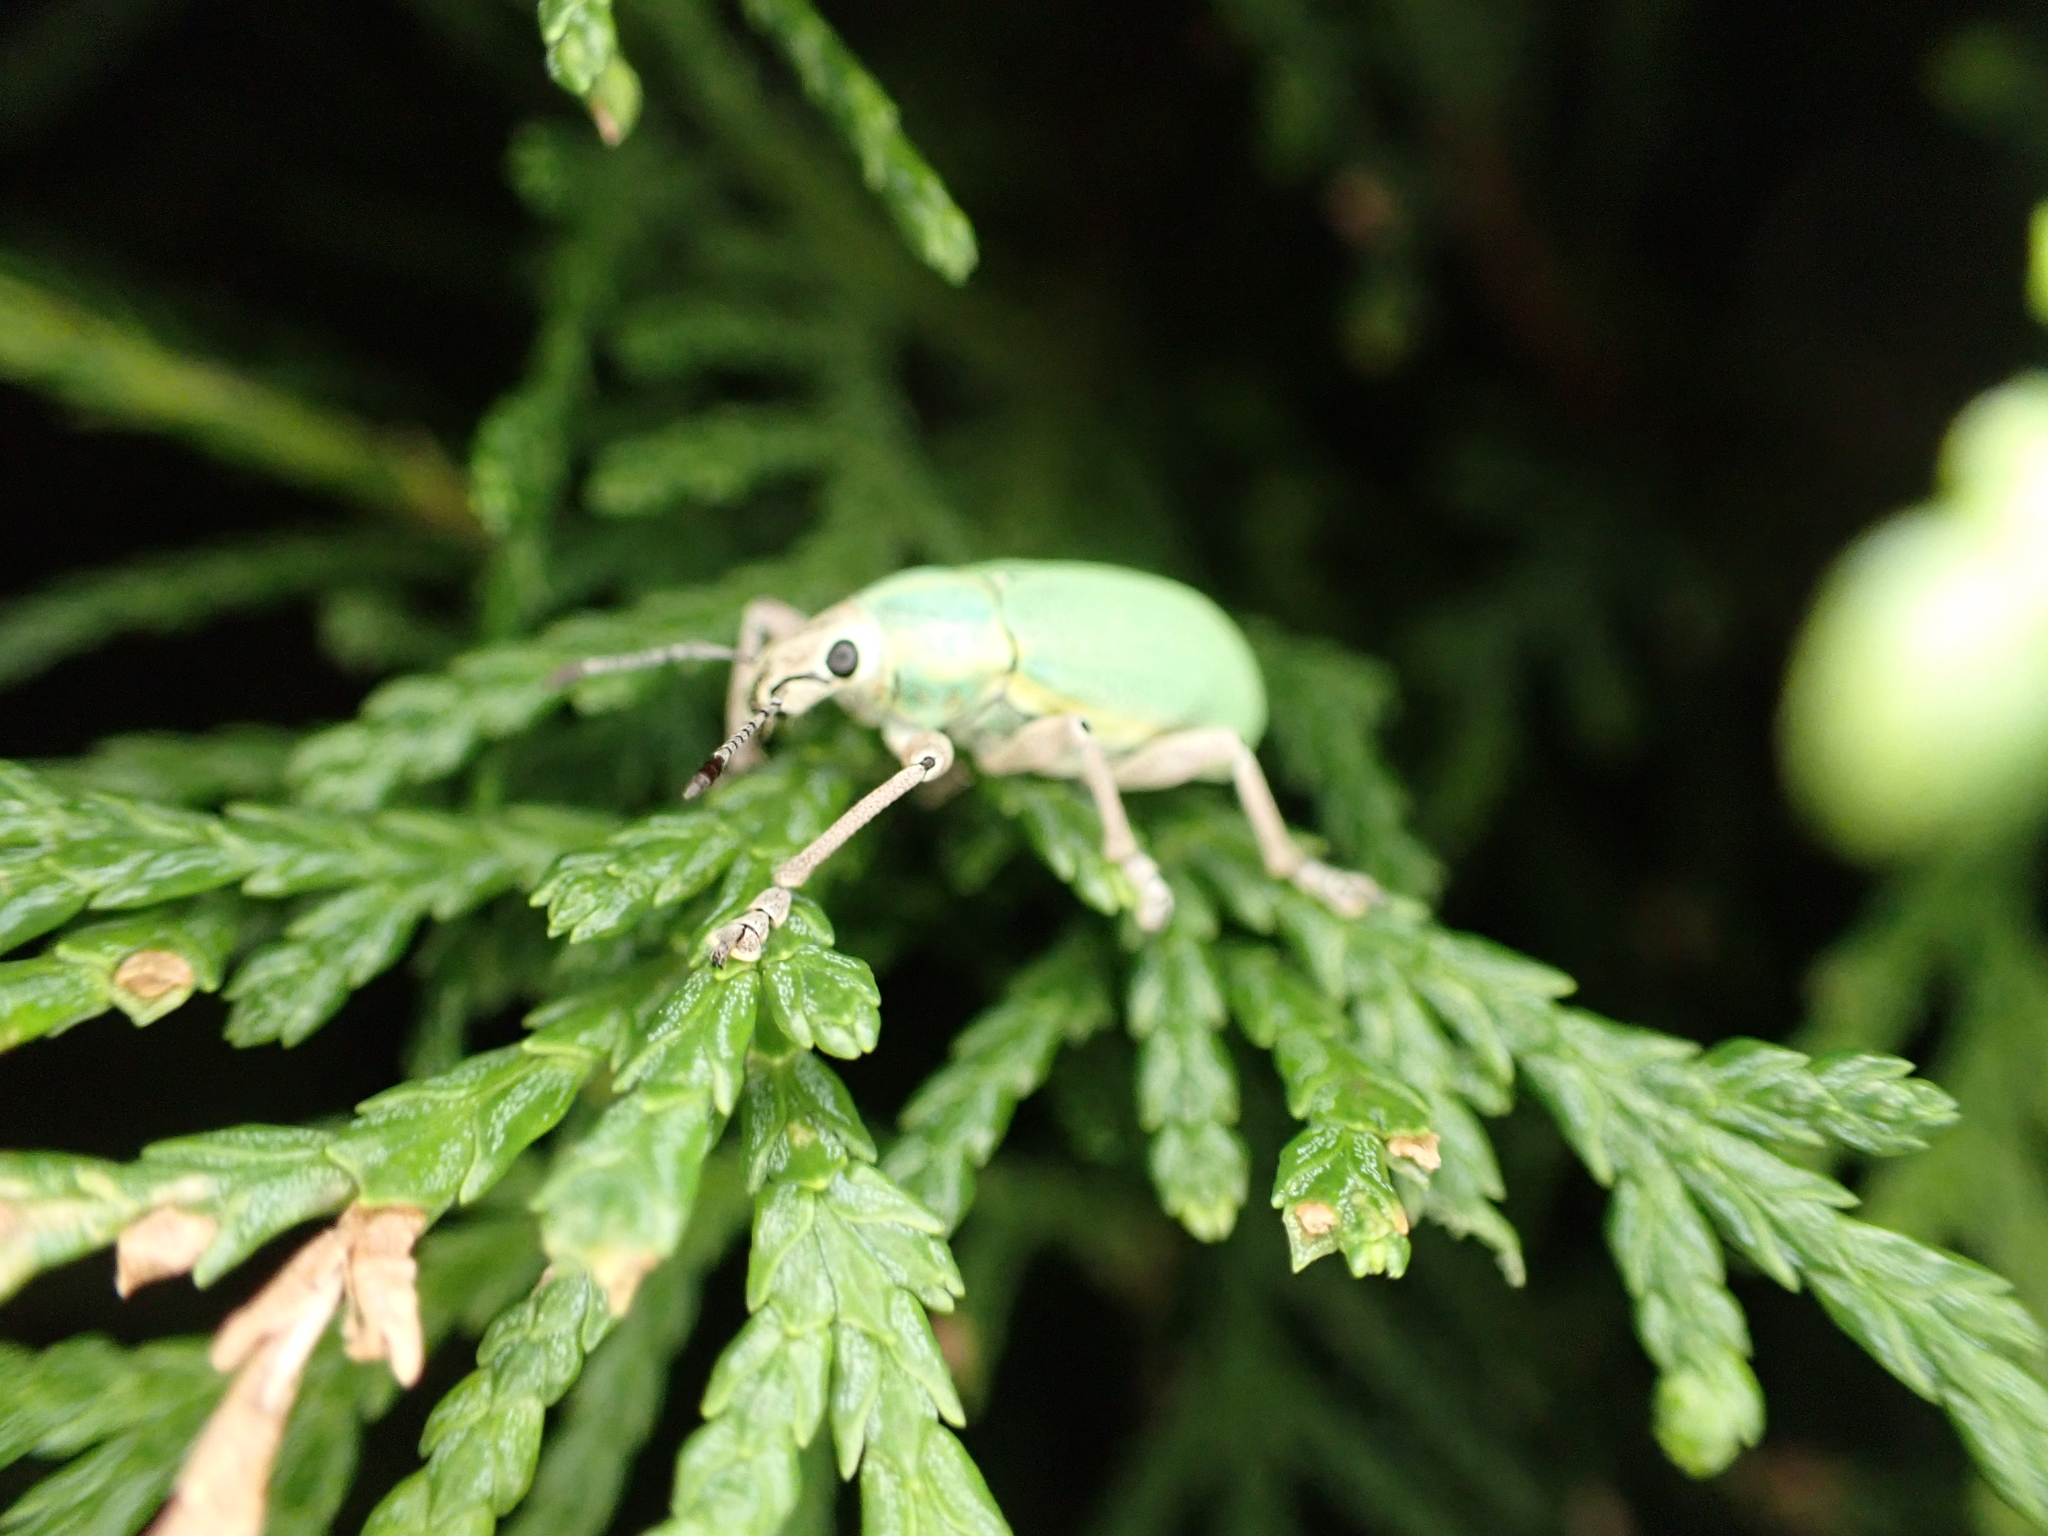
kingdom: Animalia
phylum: Arthropoda
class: Insecta
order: Coleoptera
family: Curculionidae
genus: Pachnaeus
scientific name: Pachnaeus litus
